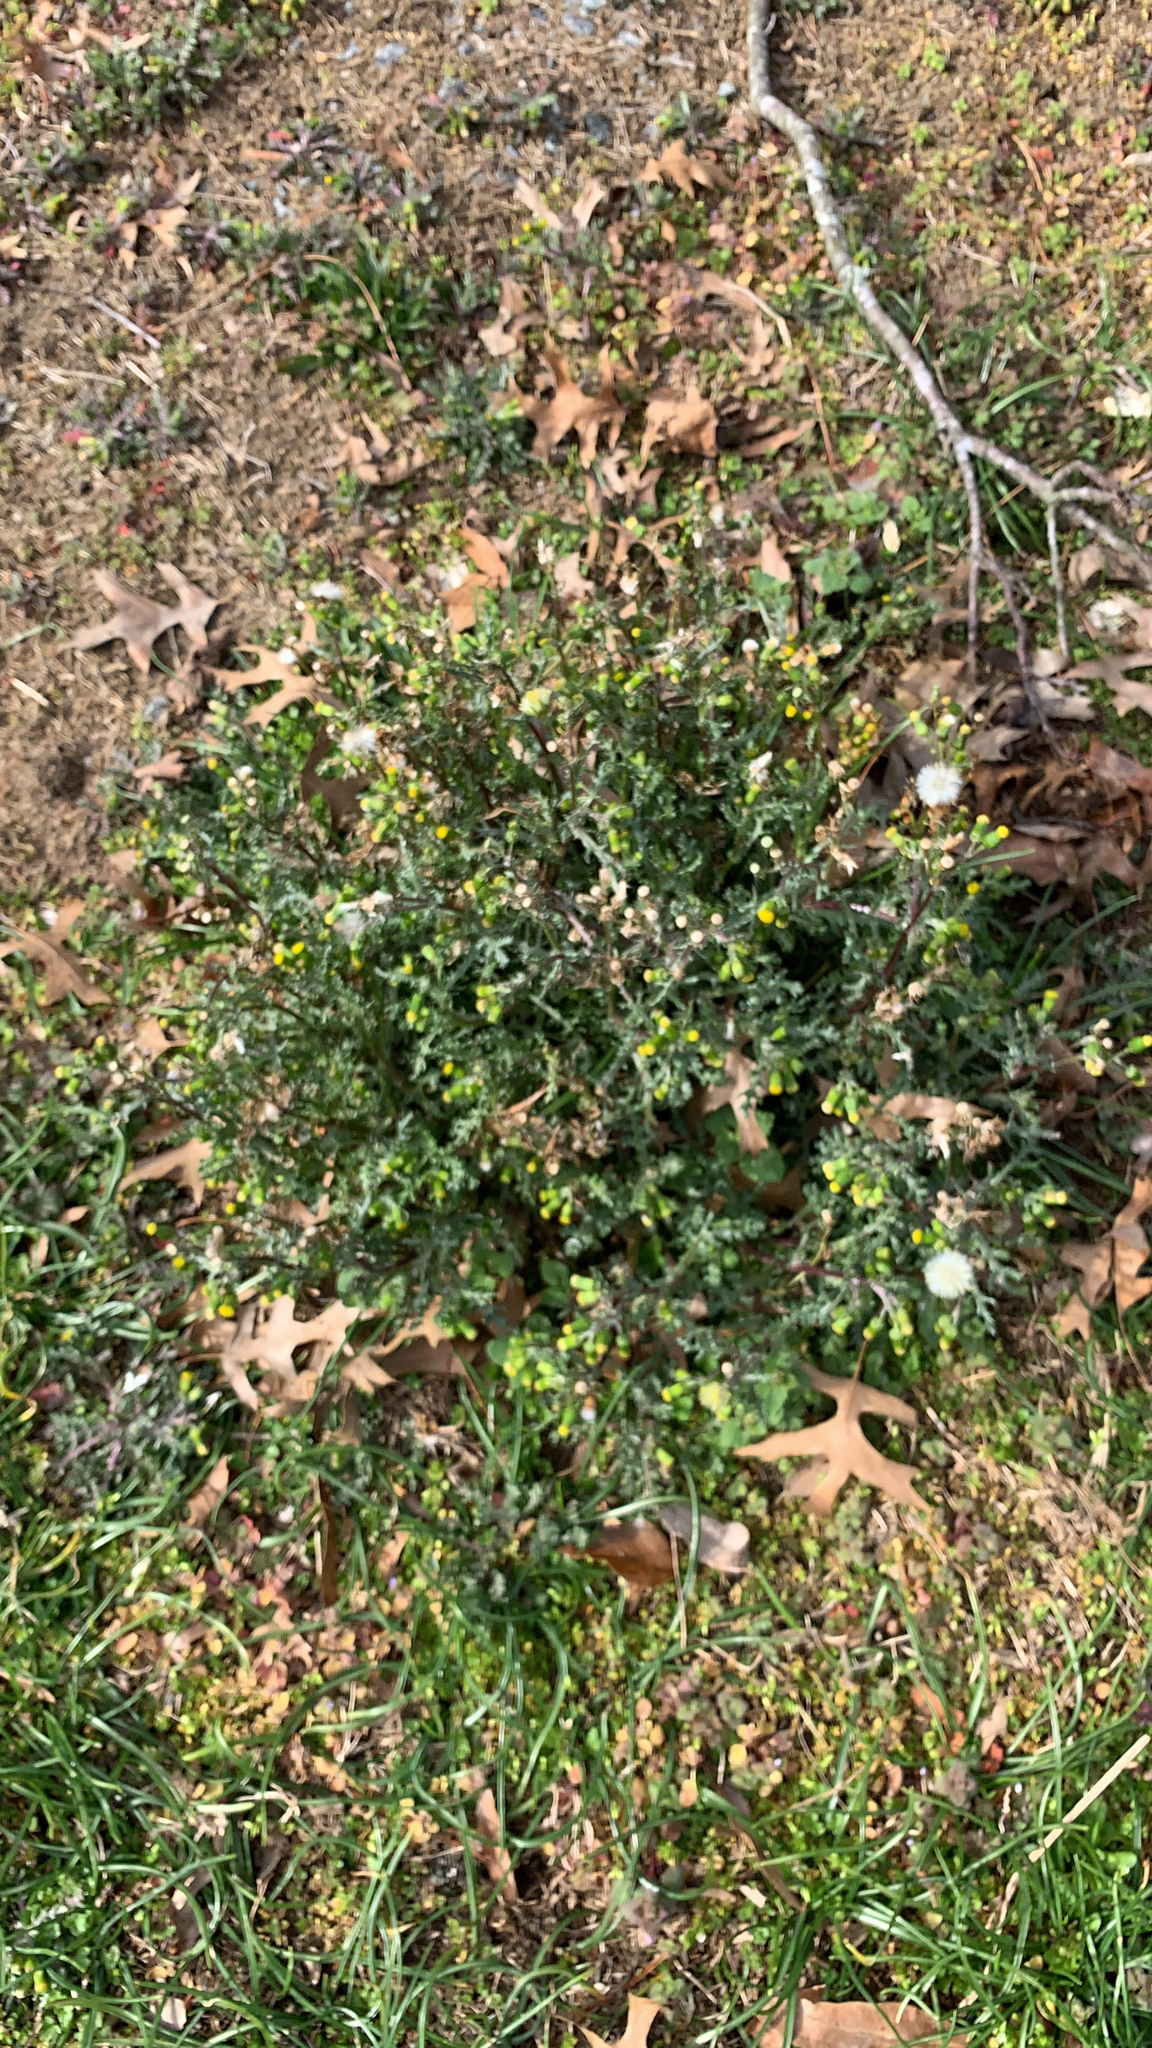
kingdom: Plantae
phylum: Tracheophyta
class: Magnoliopsida
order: Asterales
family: Asteraceae
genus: Senecio
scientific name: Senecio vulgaris
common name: Old-man-in-the-spring
